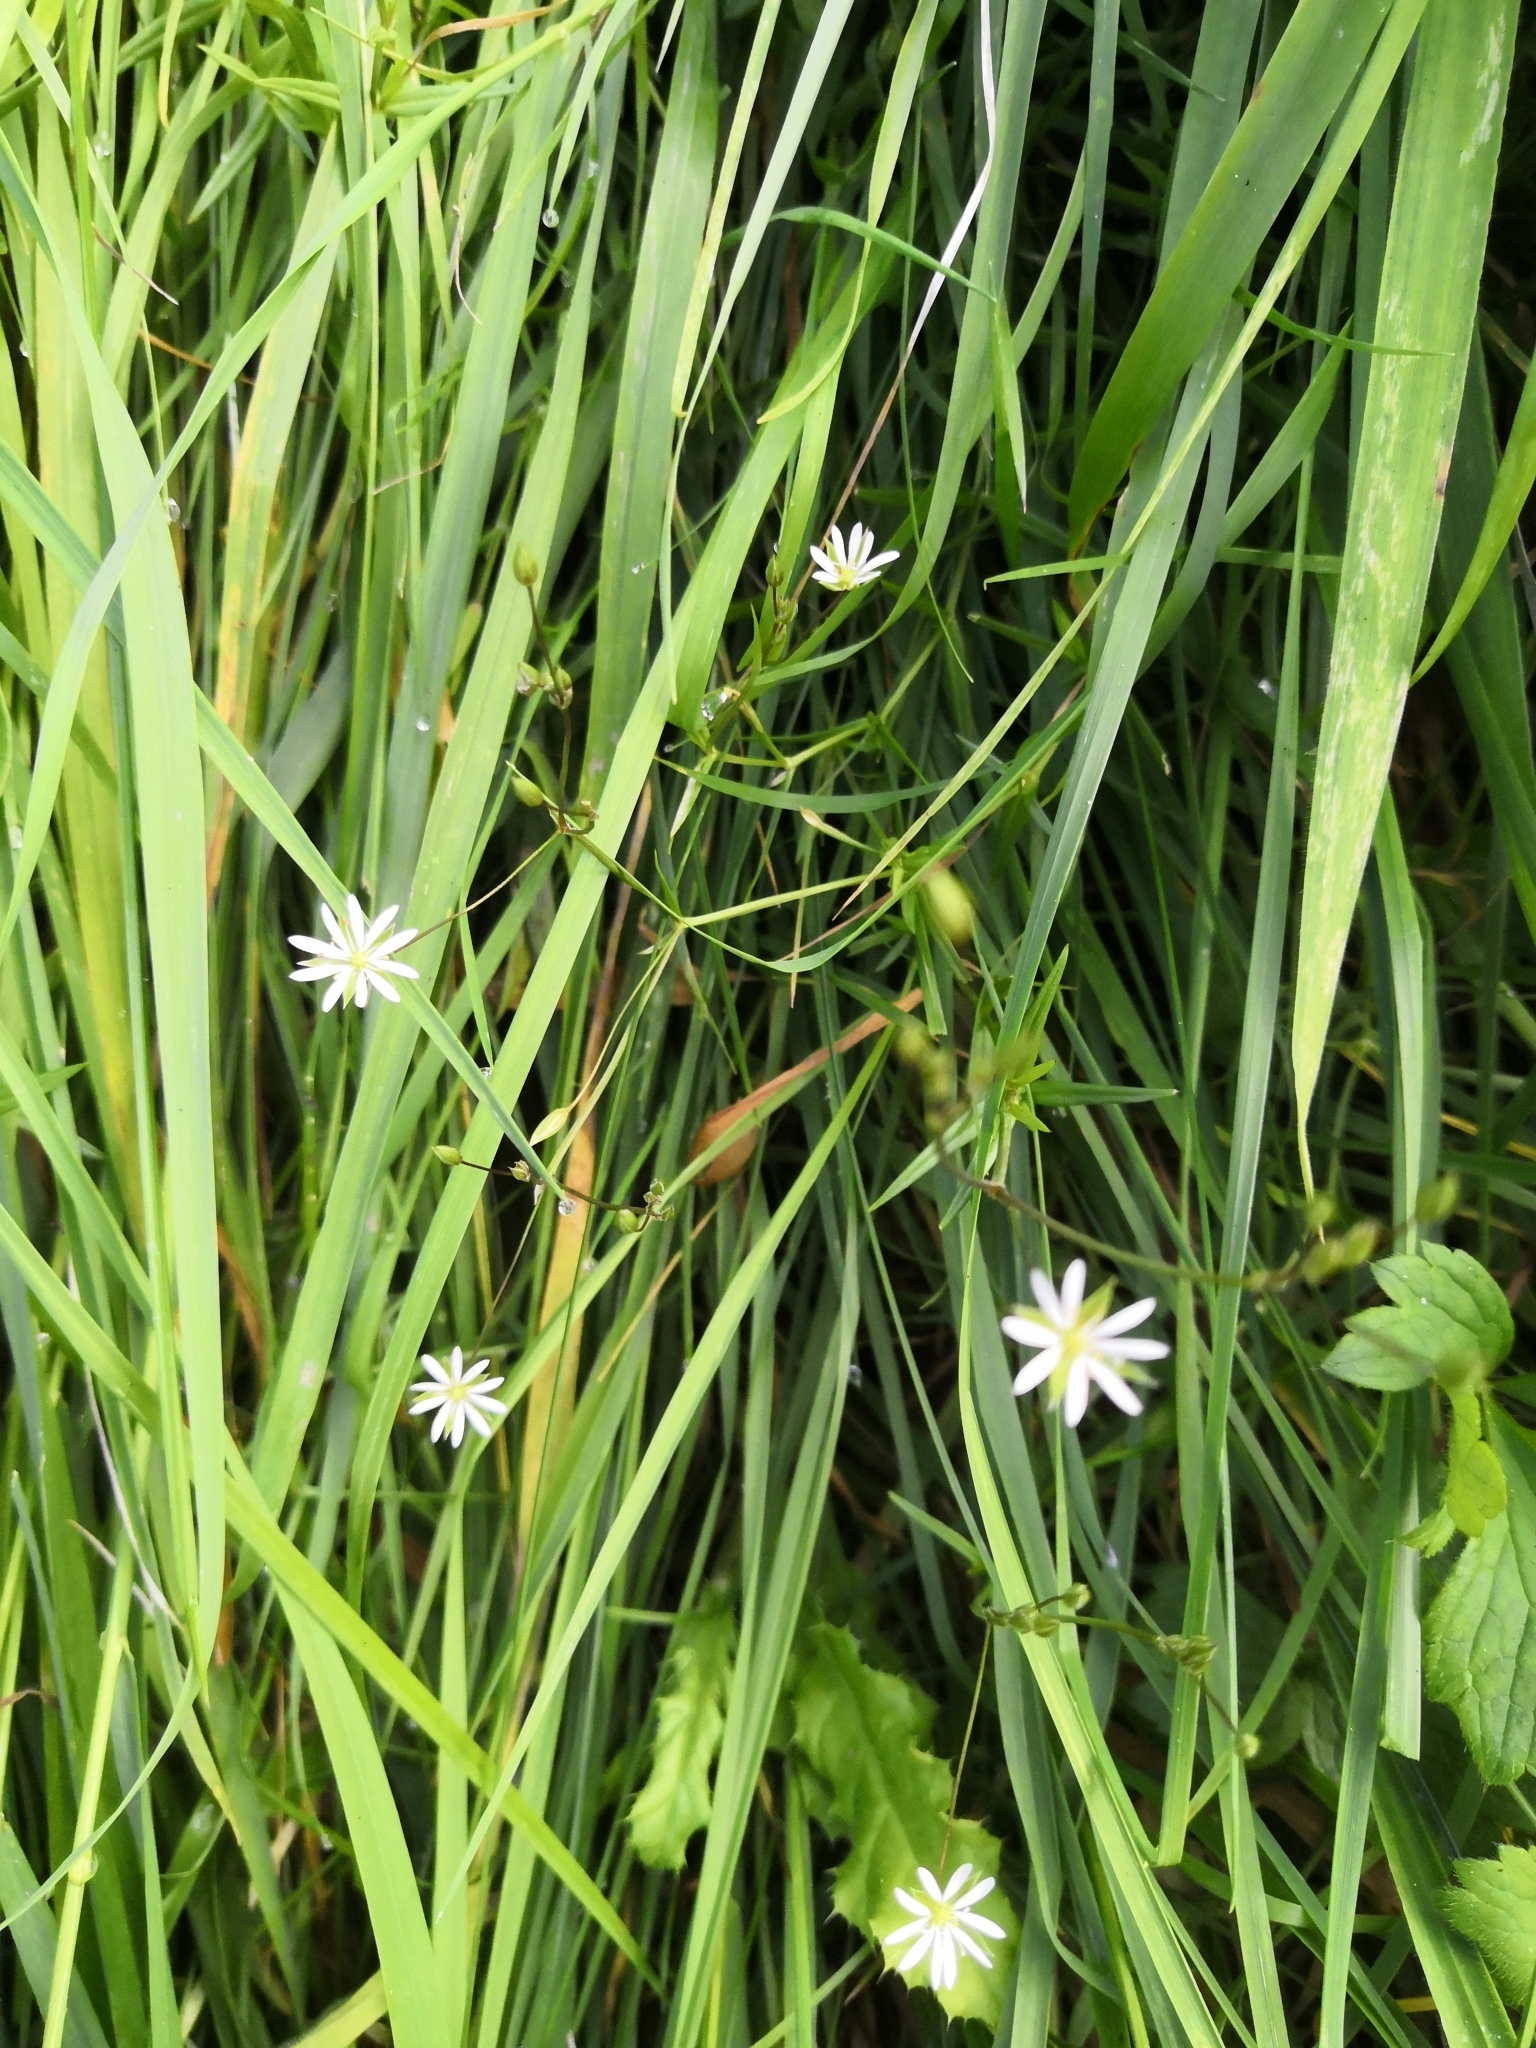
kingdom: Plantae
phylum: Tracheophyta
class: Magnoliopsida
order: Caryophyllales
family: Caryophyllaceae
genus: Stellaria
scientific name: Stellaria graminea
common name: Grass-like starwort
